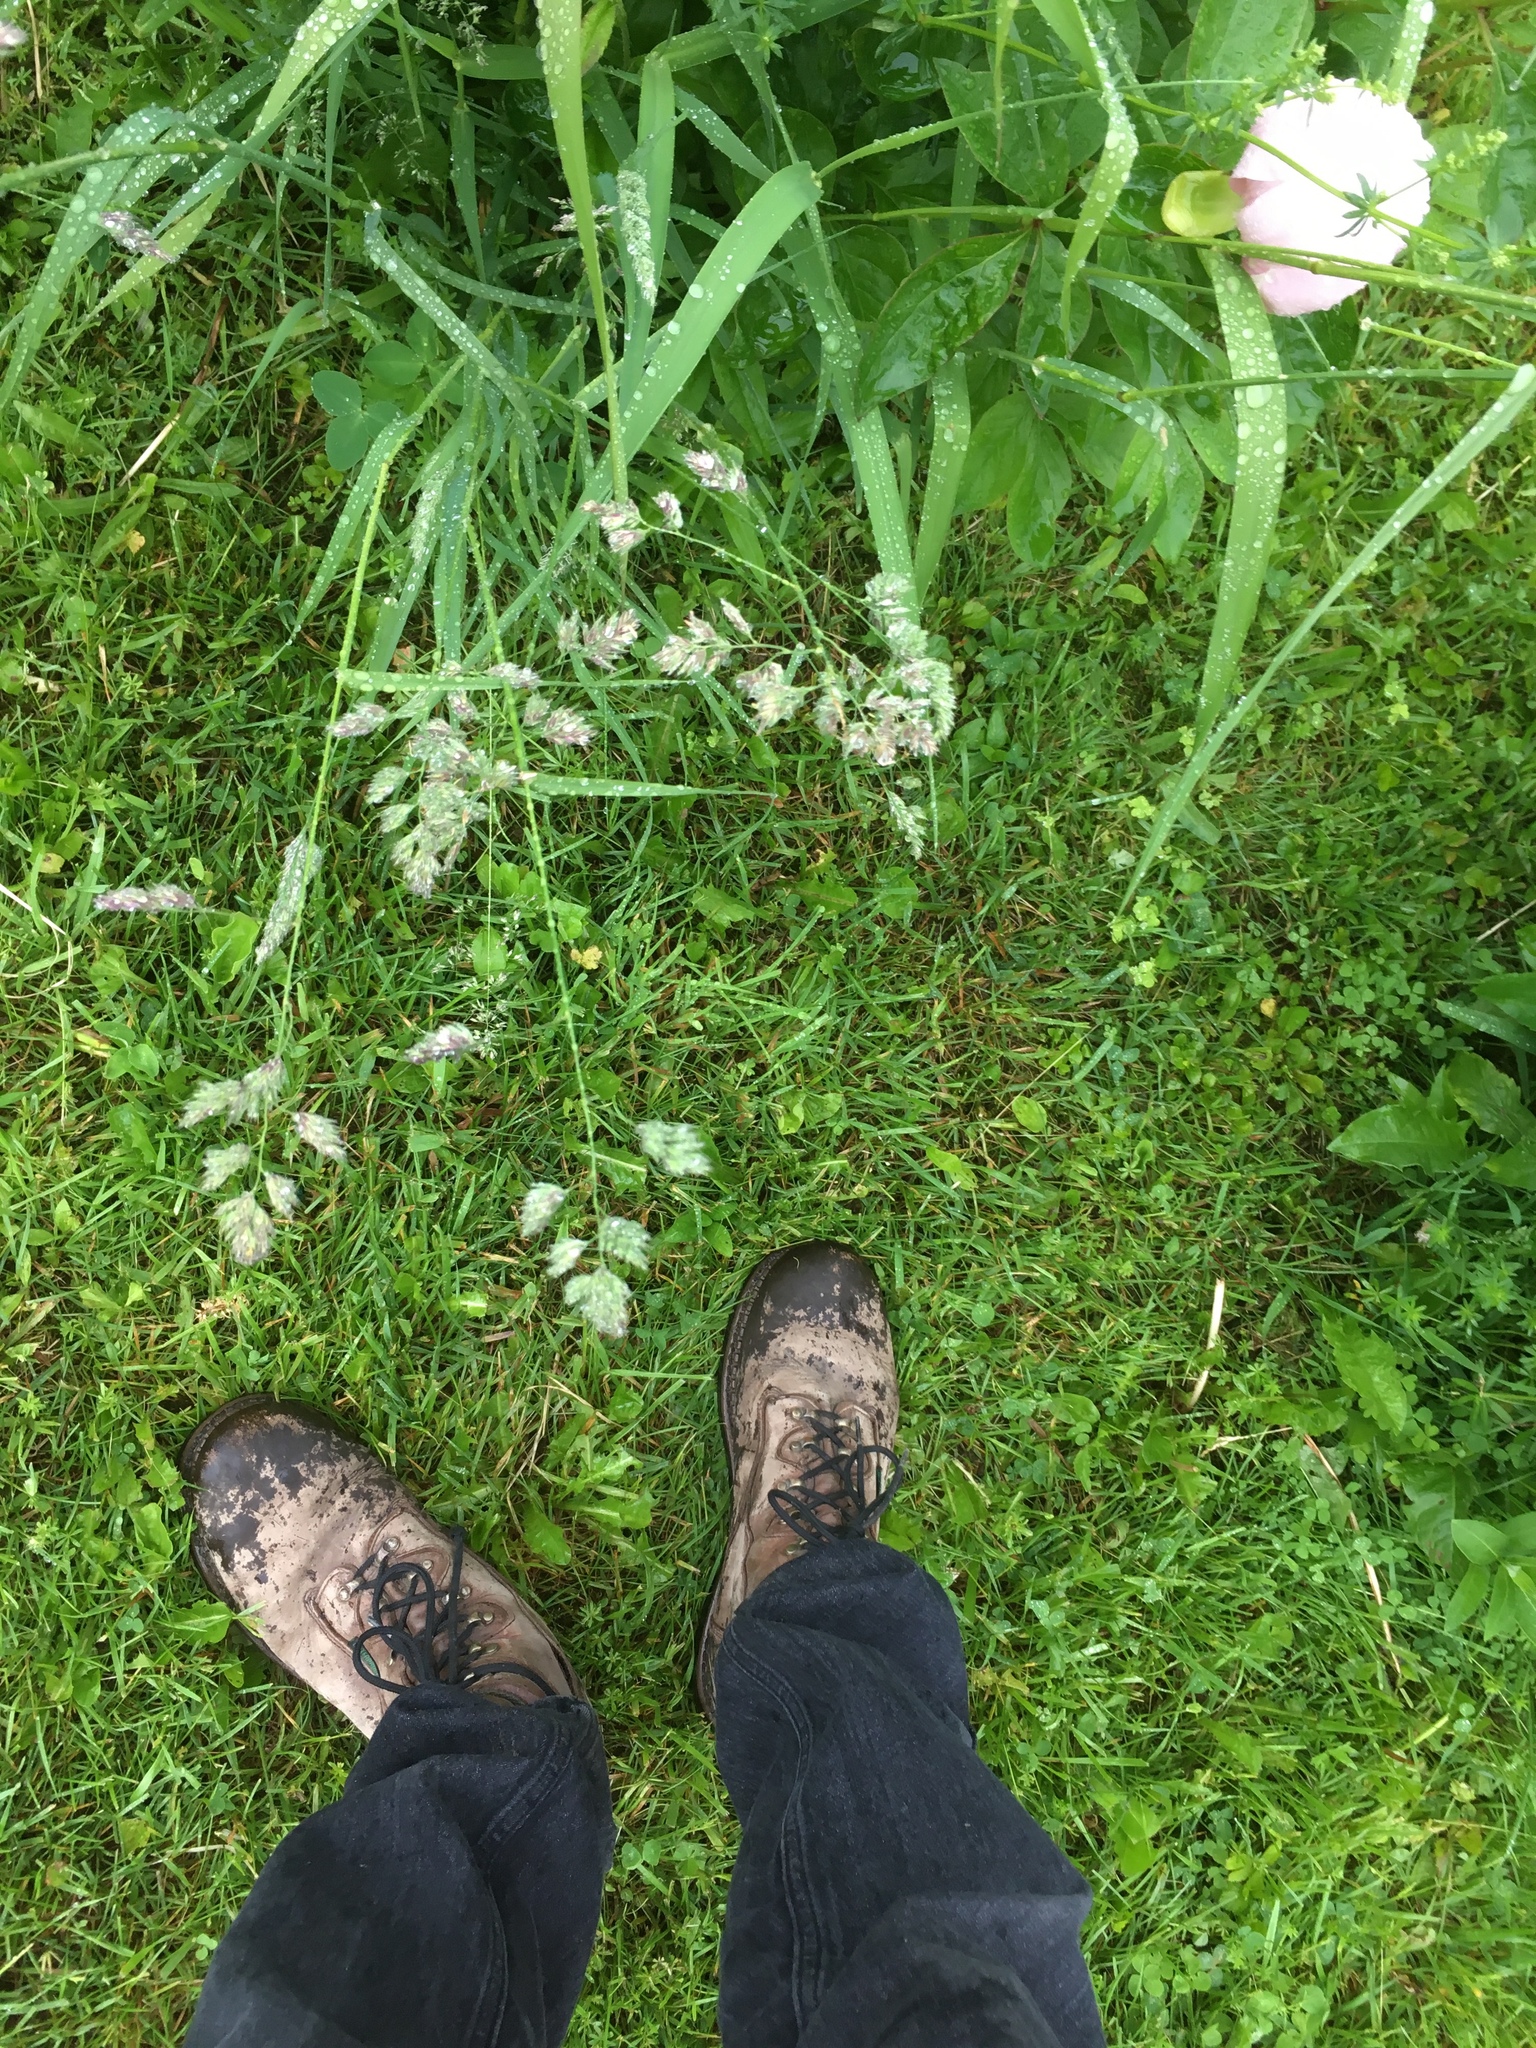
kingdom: Plantae
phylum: Tracheophyta
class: Liliopsida
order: Poales
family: Poaceae
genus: Dactylis
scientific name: Dactylis glomerata
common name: Orchardgrass
